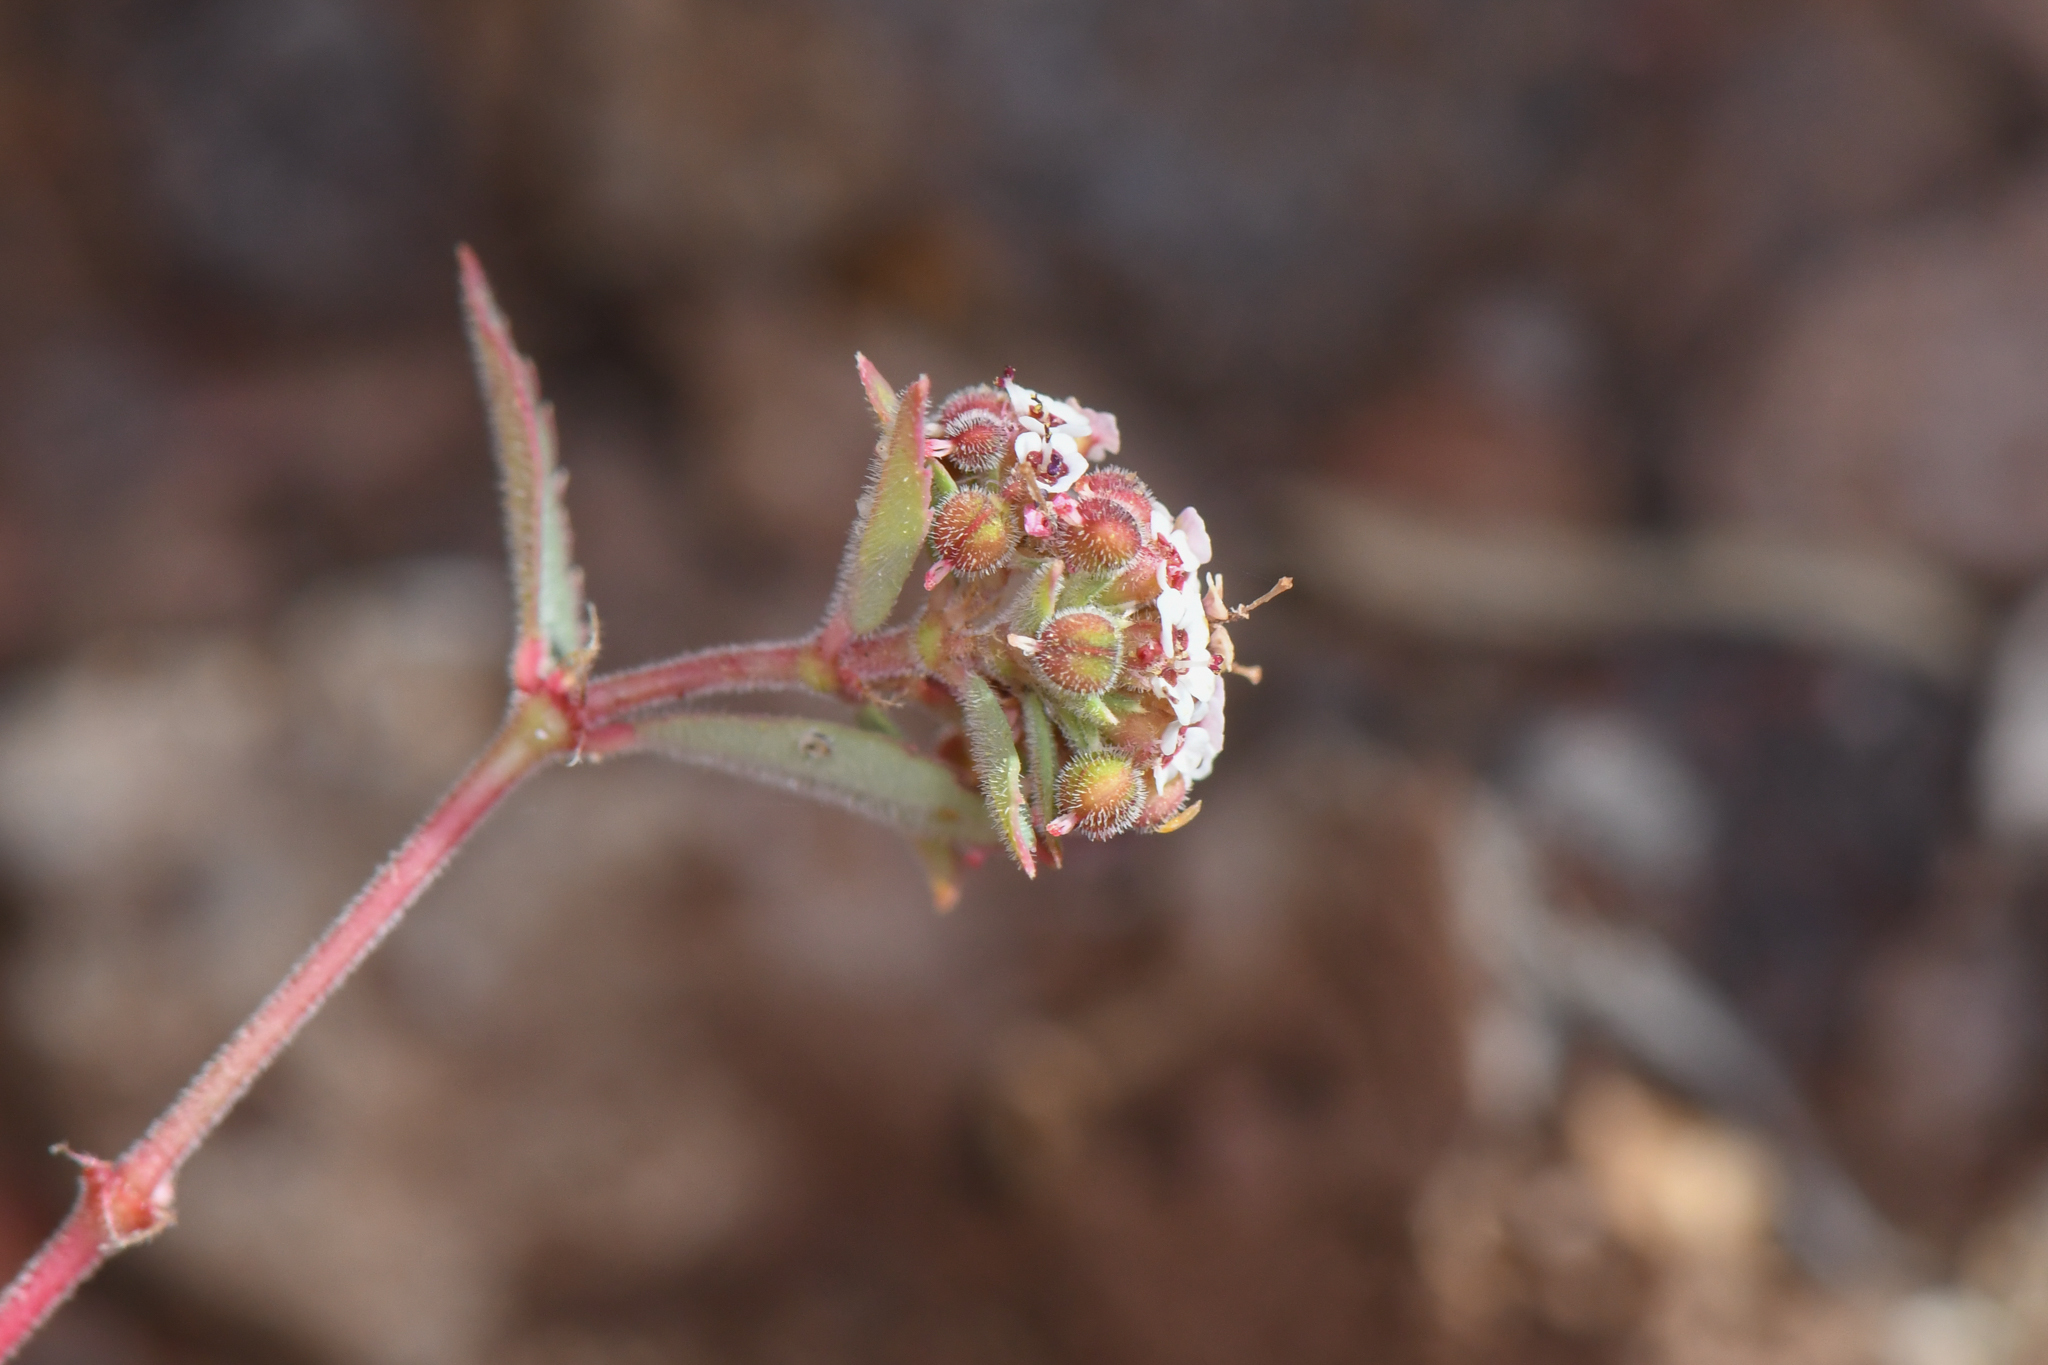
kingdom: Plantae
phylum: Tracheophyta
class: Magnoliopsida
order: Malpighiales
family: Euphorbiaceae
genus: Euphorbia
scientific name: Euphorbia capitellata
